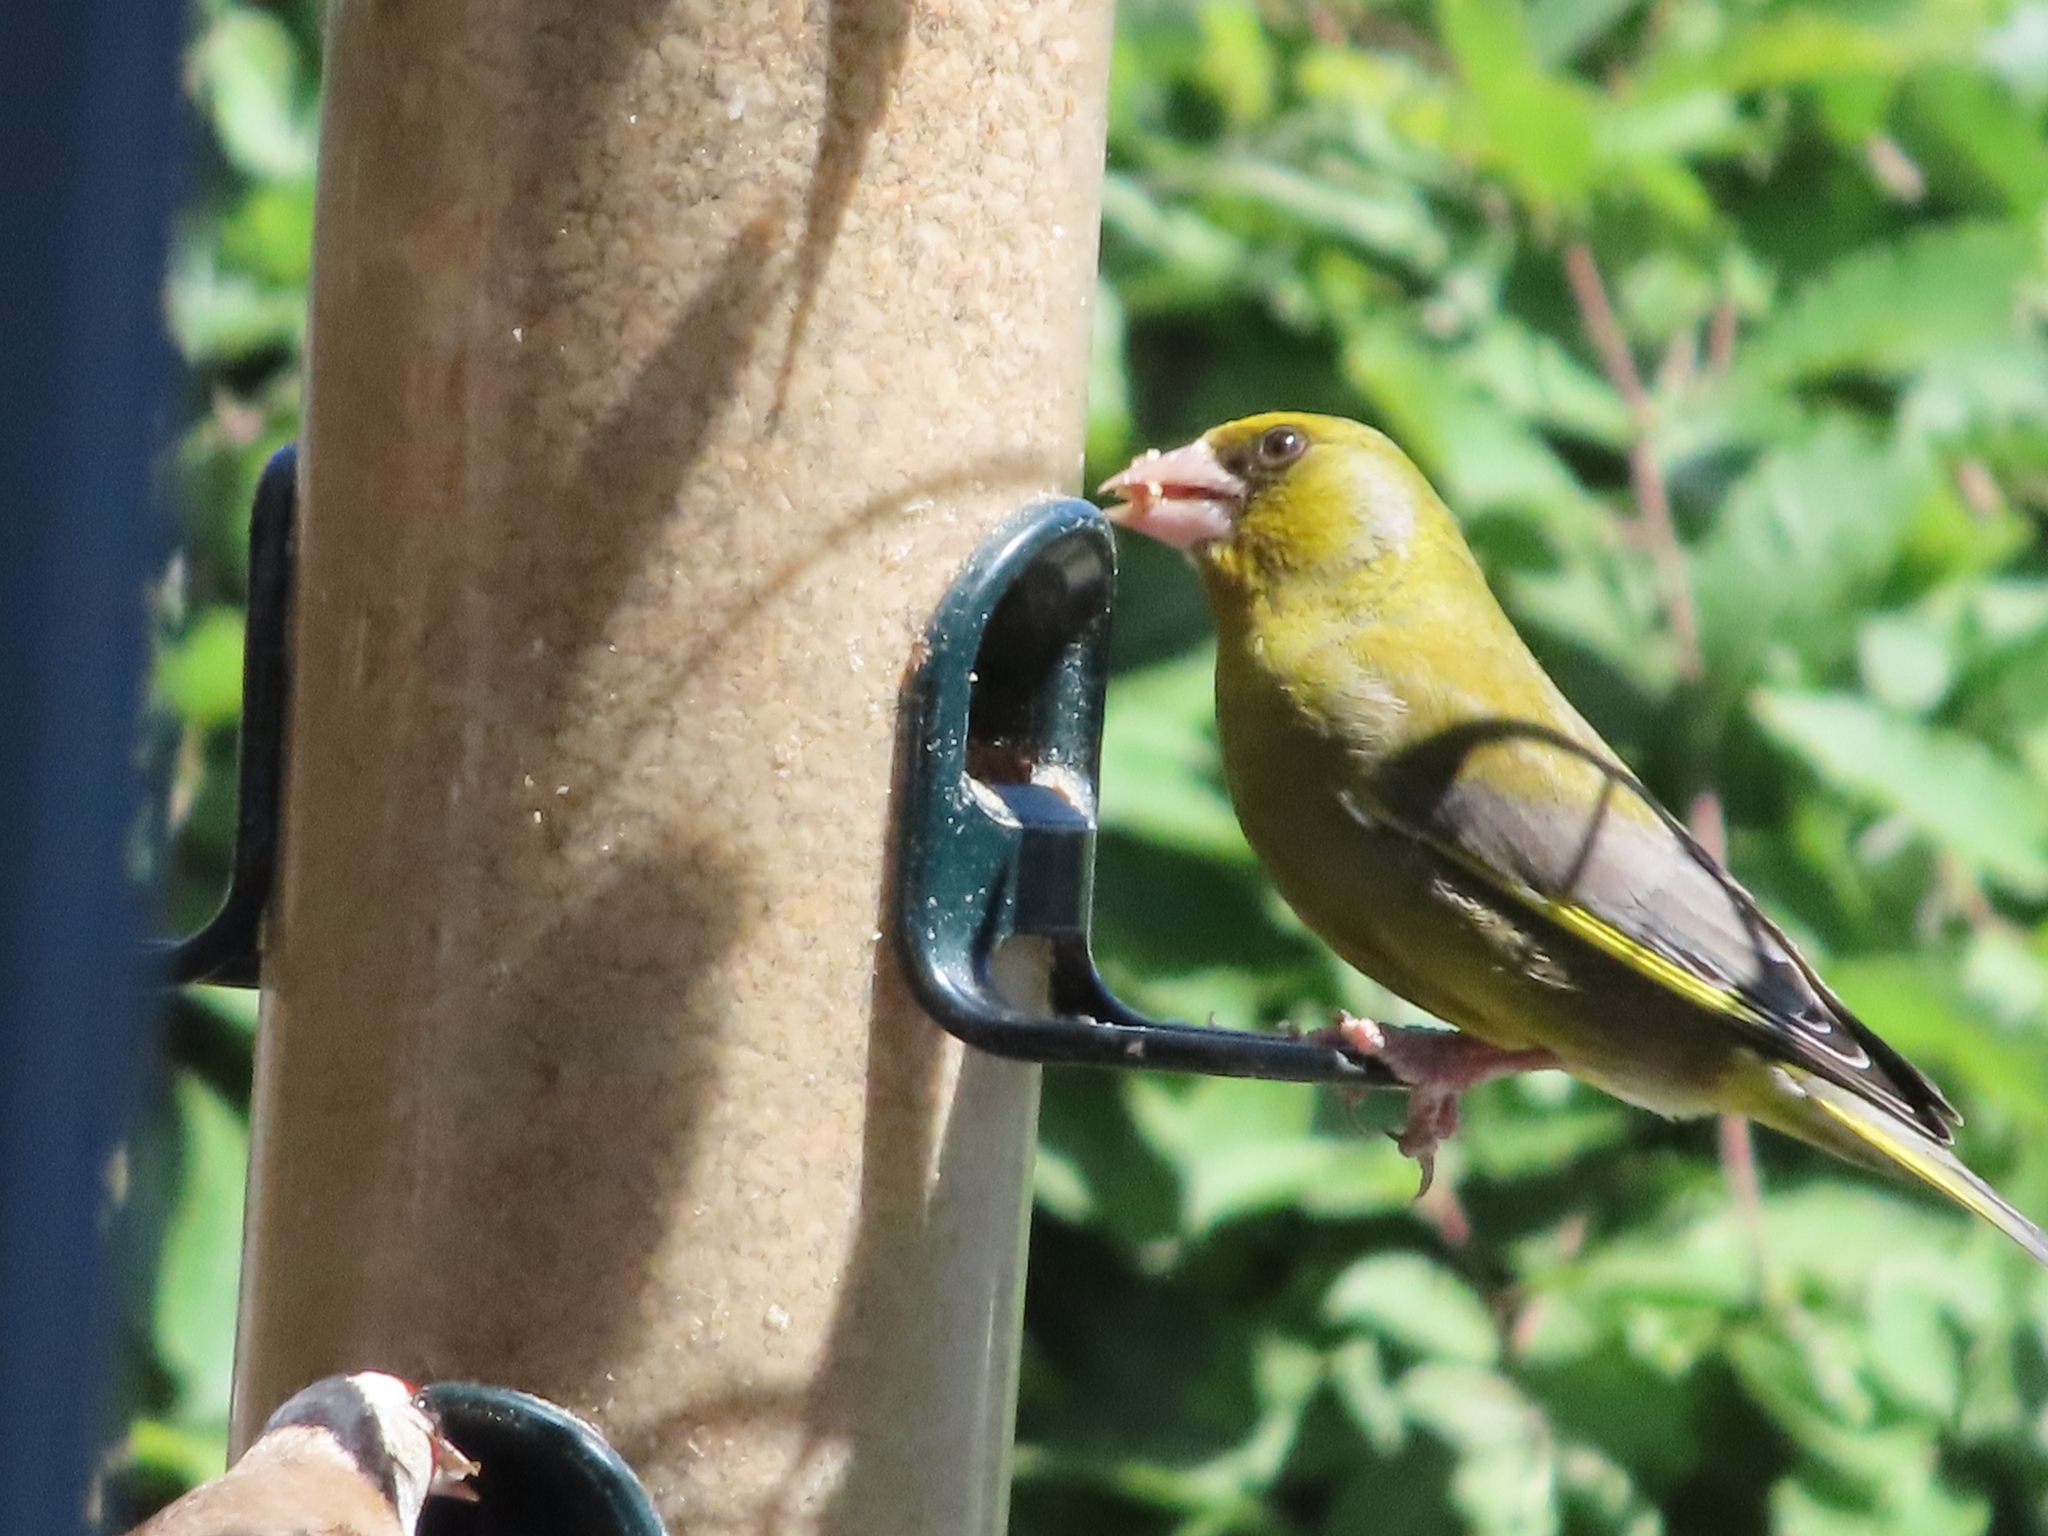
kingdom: Plantae
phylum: Tracheophyta
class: Liliopsida
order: Poales
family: Poaceae
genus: Chloris
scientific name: Chloris chloris
